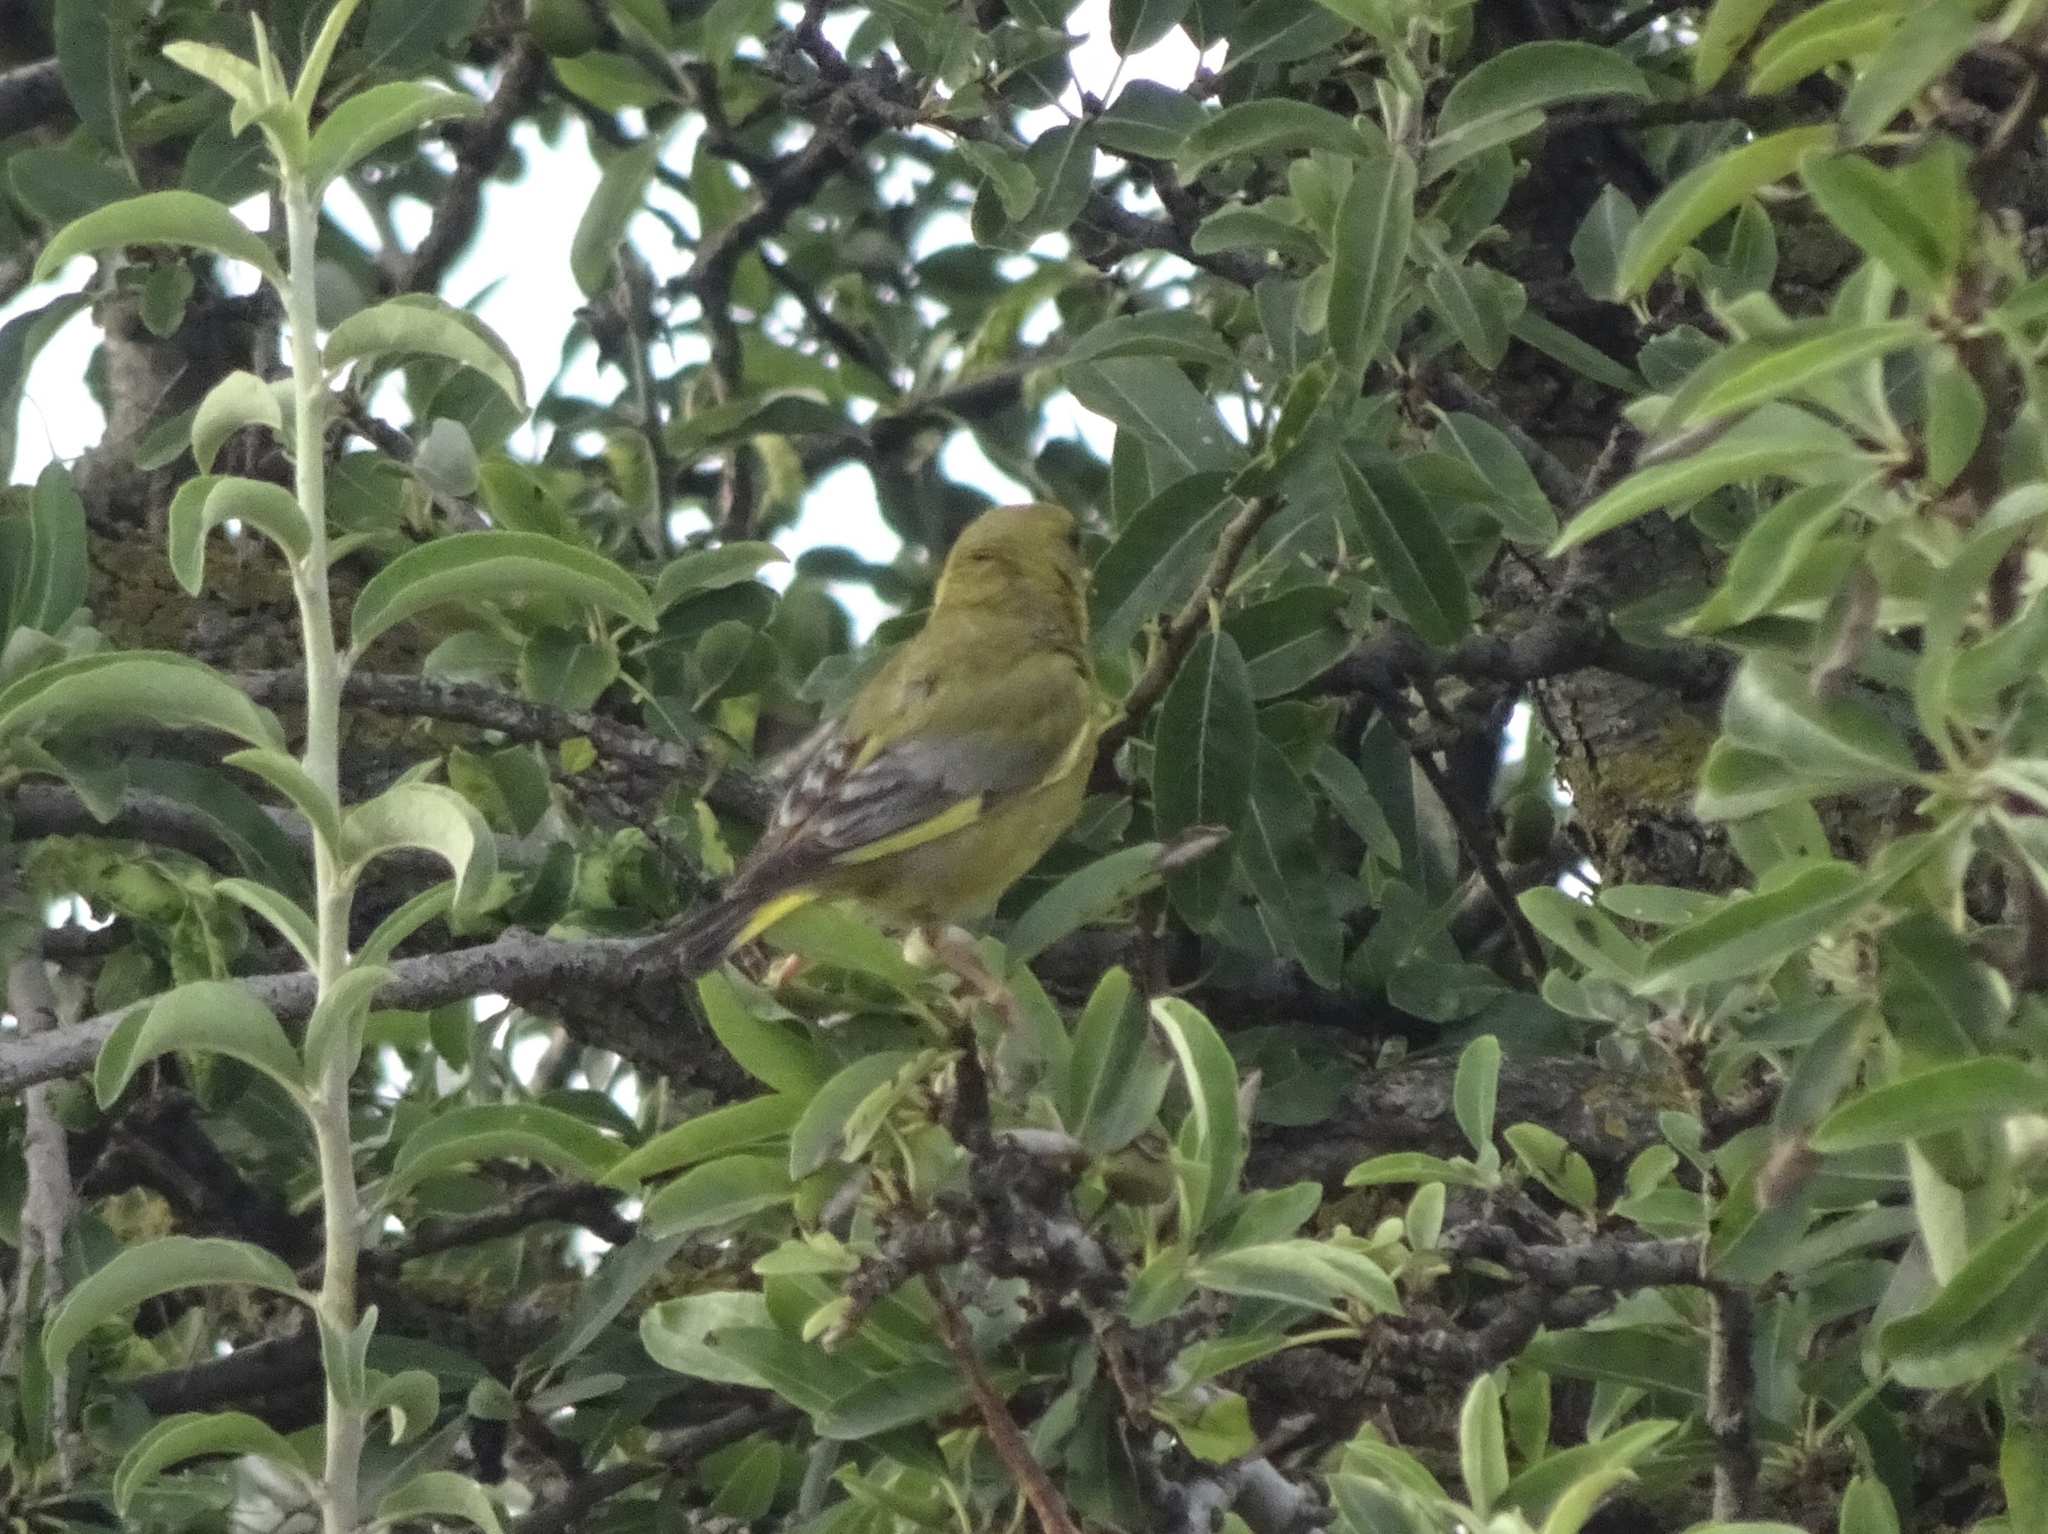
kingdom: Plantae
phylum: Tracheophyta
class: Liliopsida
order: Poales
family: Poaceae
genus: Chloris
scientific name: Chloris chloris
